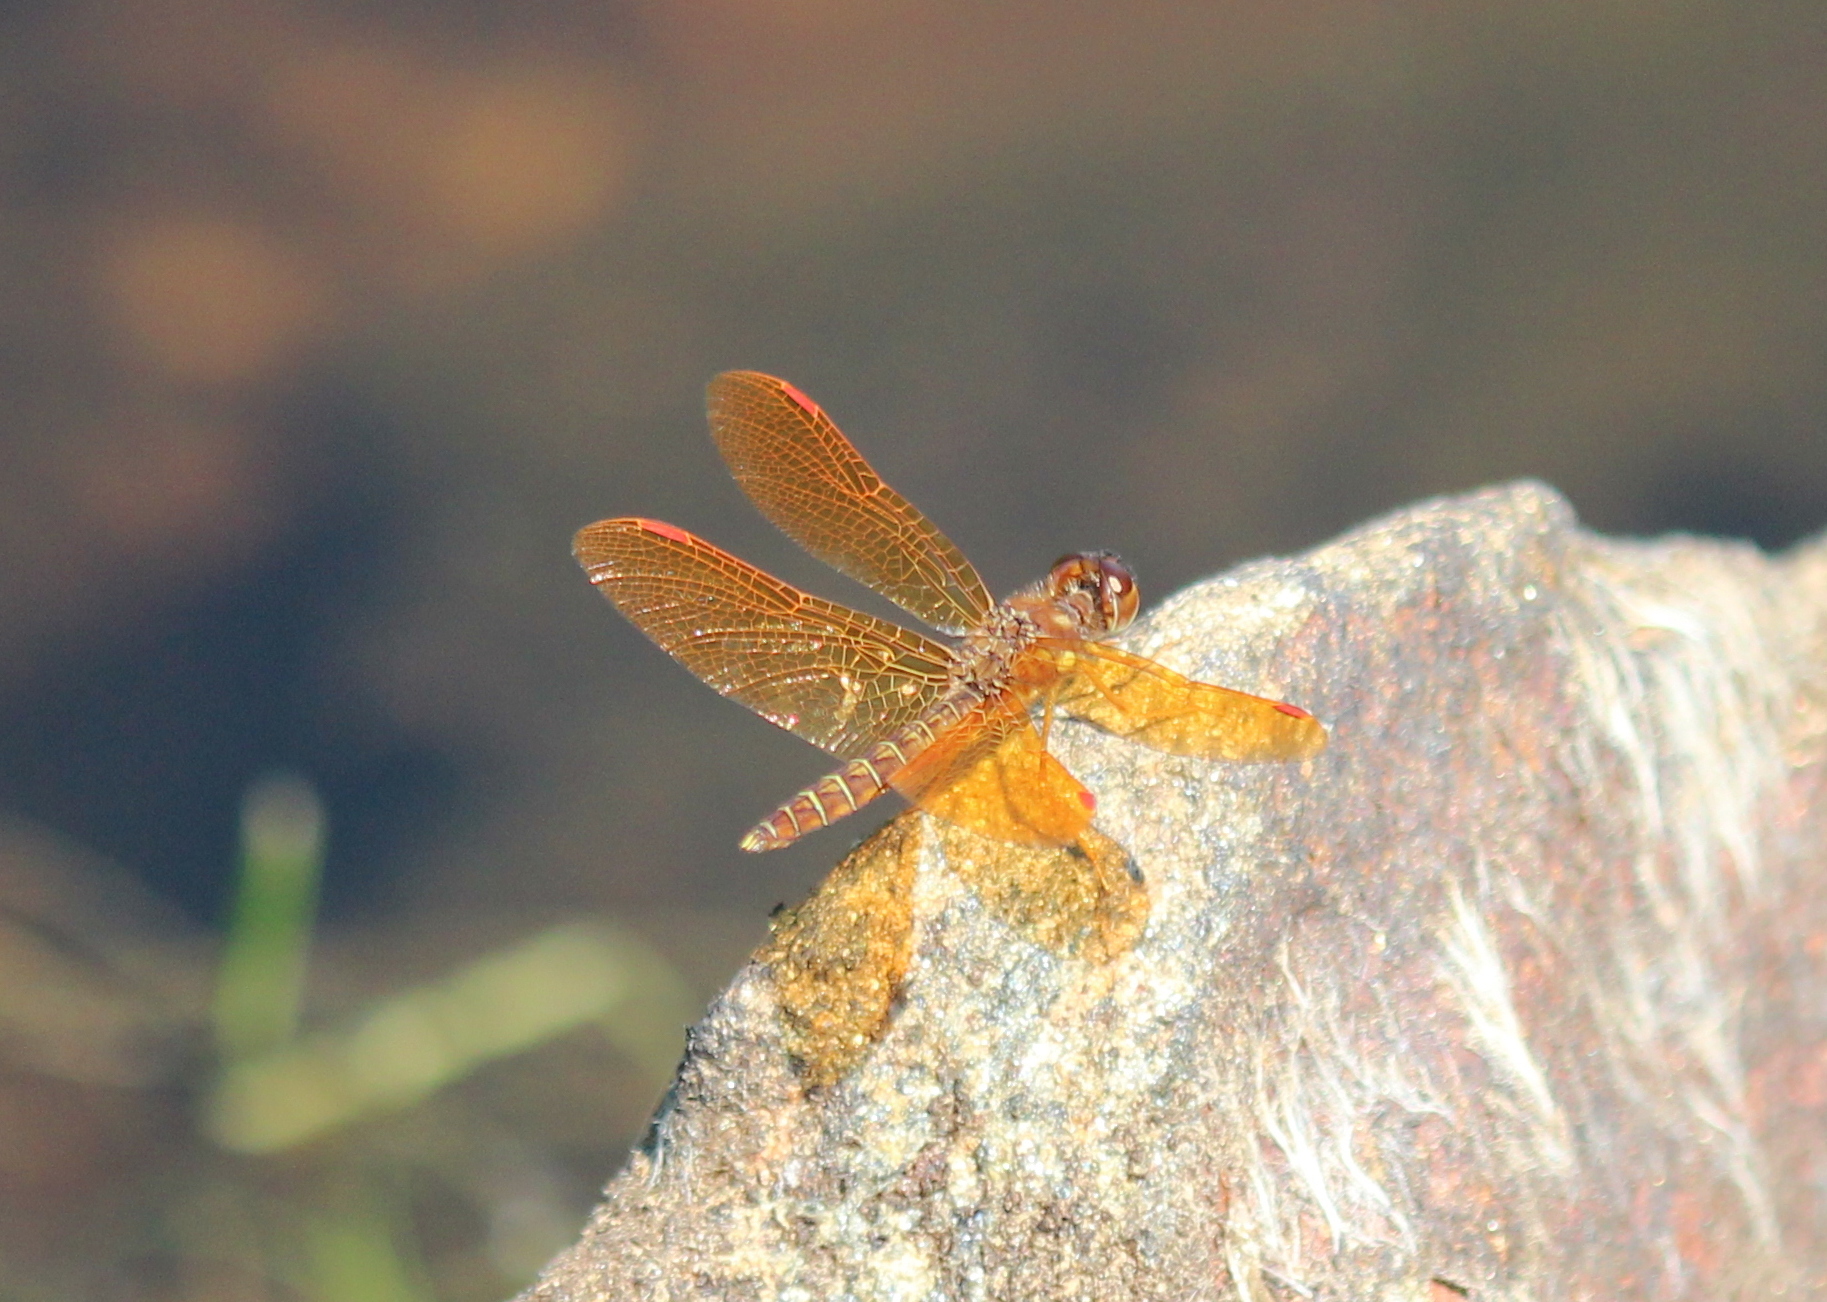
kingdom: Animalia
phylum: Arthropoda
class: Insecta
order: Odonata
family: Libellulidae
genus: Perithemis
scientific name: Perithemis tenera
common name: Eastern amberwing
